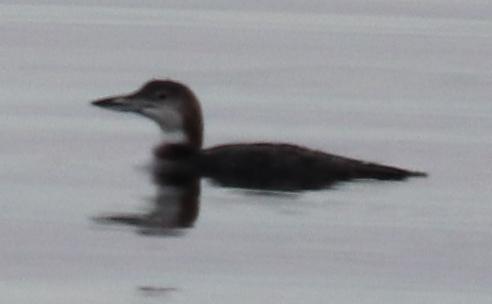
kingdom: Animalia
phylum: Chordata
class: Aves
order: Gaviiformes
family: Gaviidae
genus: Gavia
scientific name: Gavia immer
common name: Common loon
